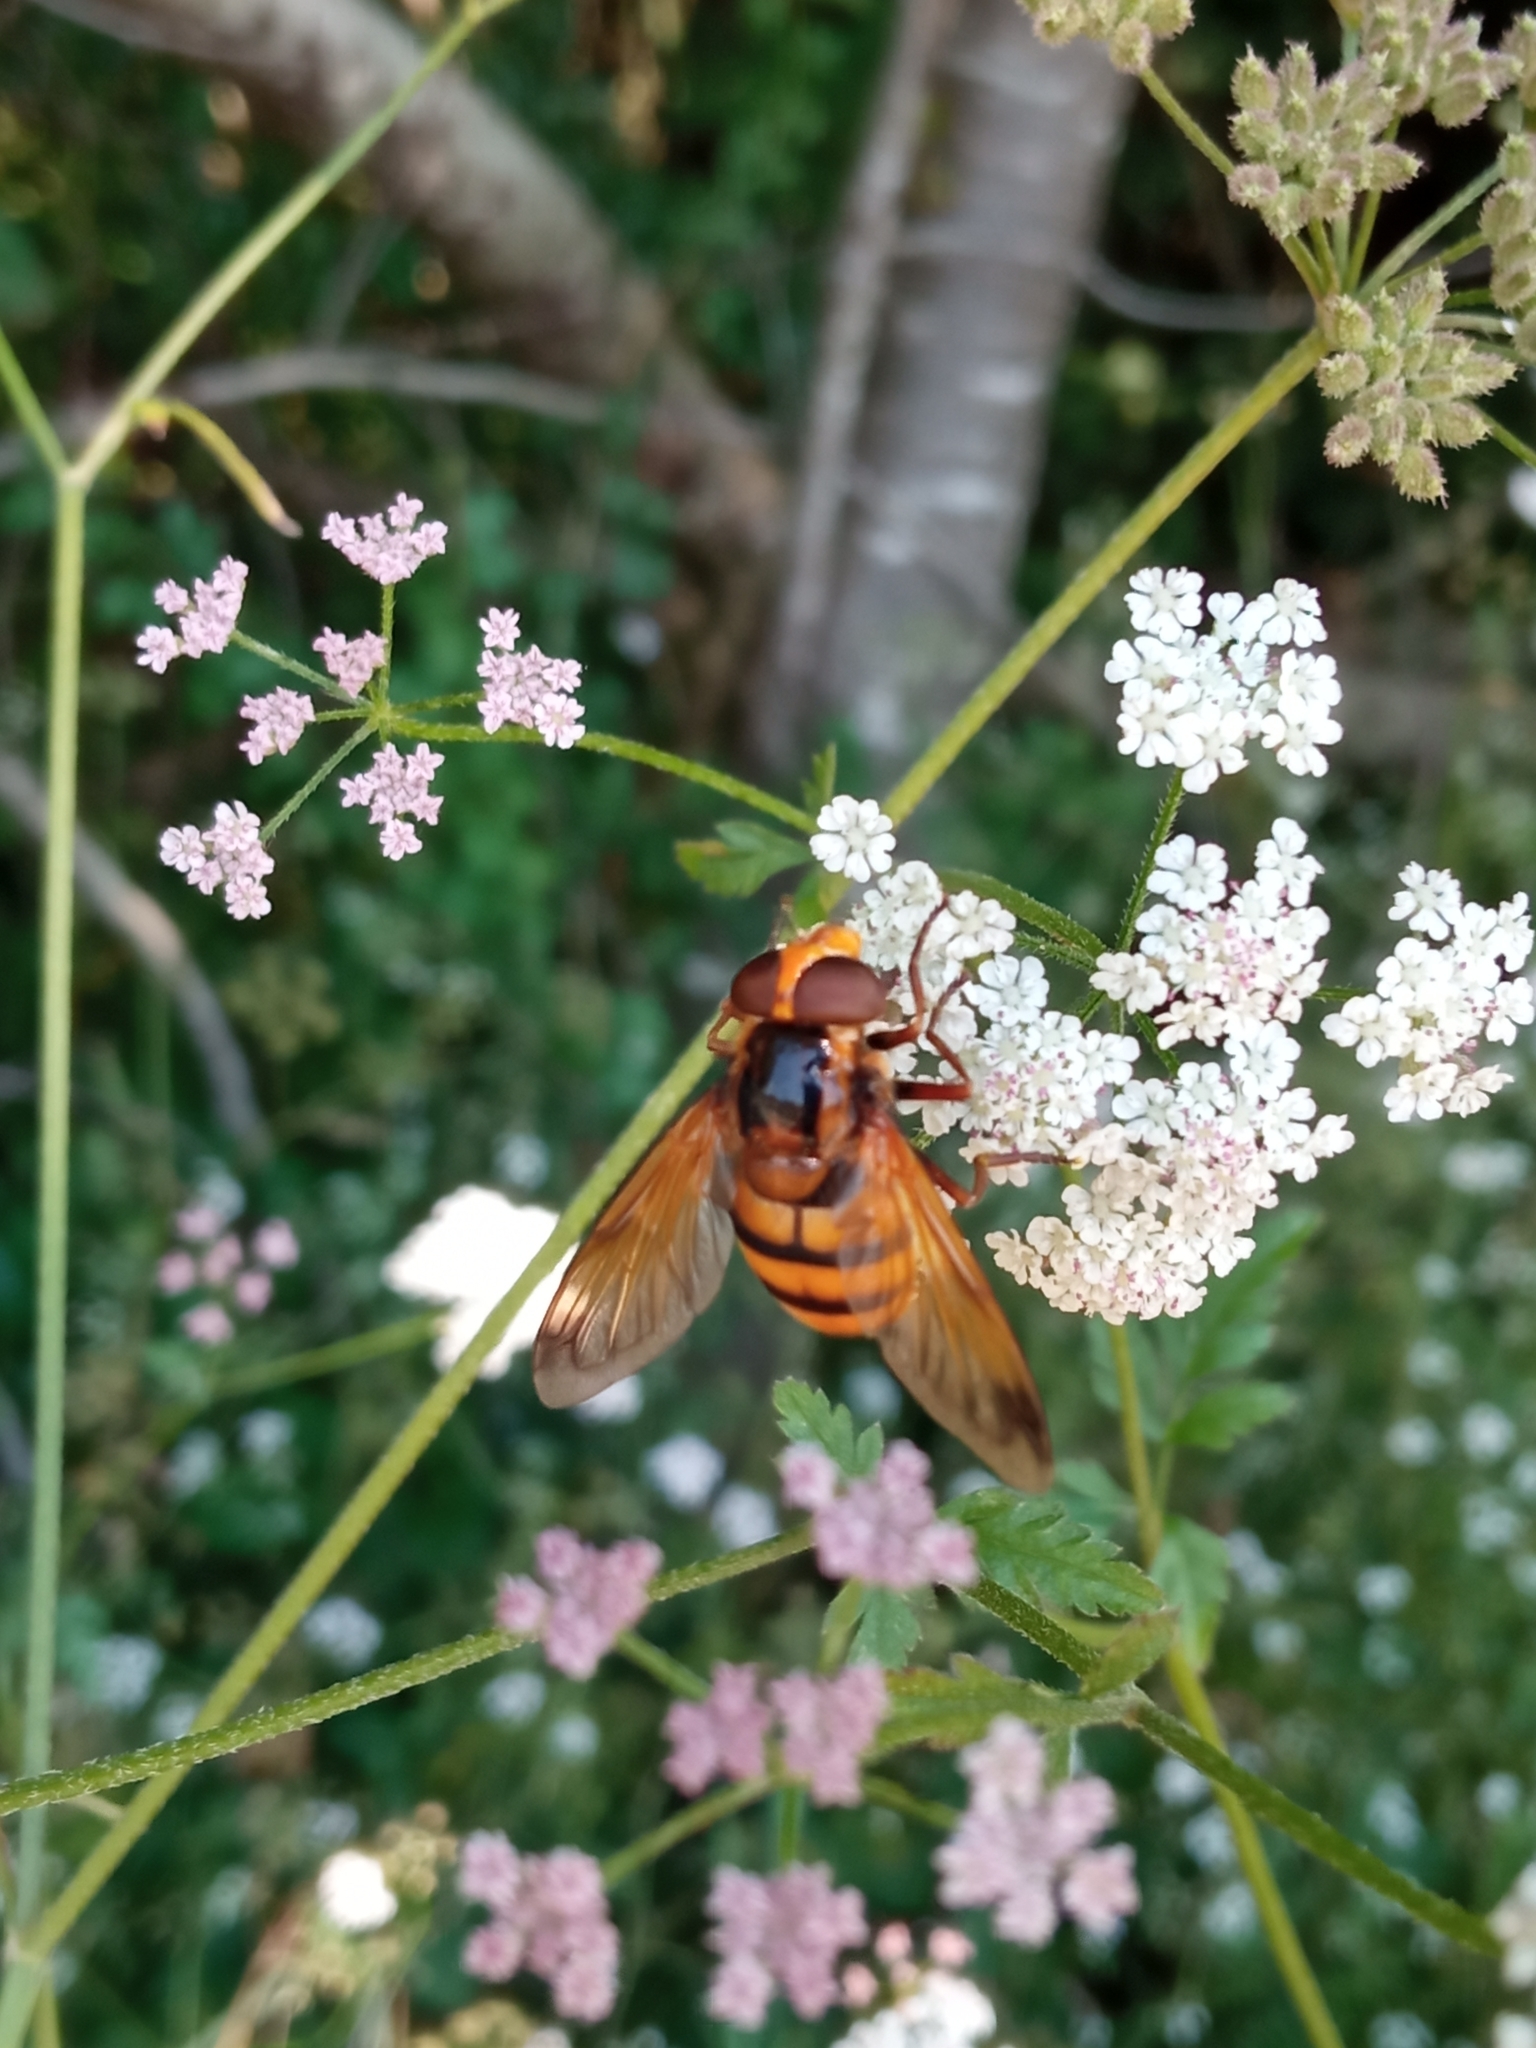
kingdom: Animalia
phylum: Arthropoda
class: Insecta
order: Diptera
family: Syrphidae
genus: Volucella
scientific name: Volucella inanis
